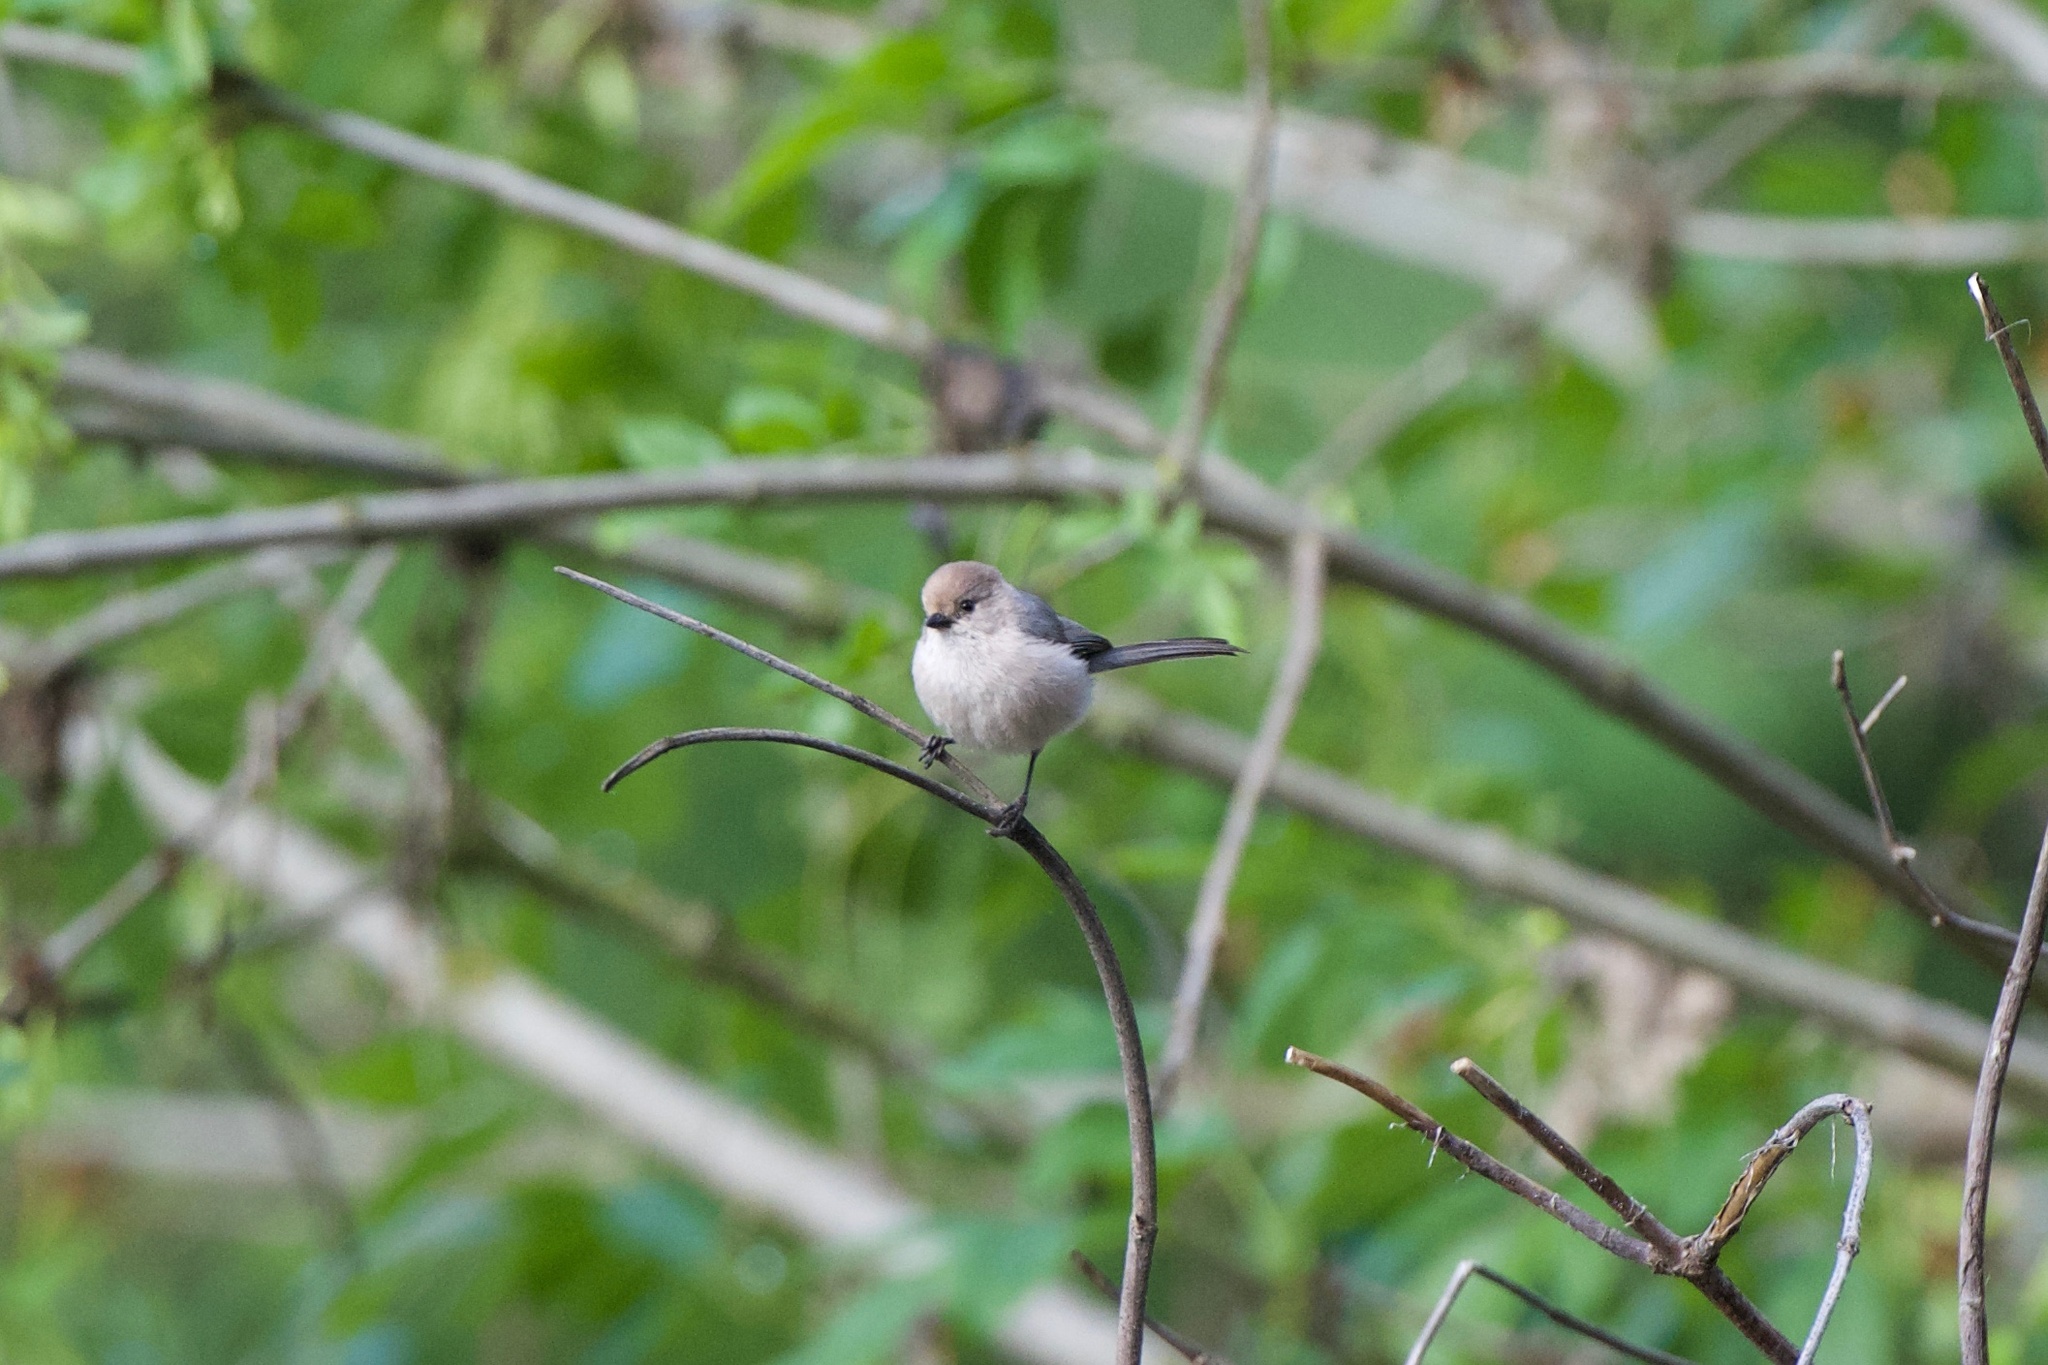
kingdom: Animalia
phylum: Chordata
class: Aves
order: Passeriformes
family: Aegithalidae
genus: Psaltriparus
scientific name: Psaltriparus minimus
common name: American bushtit
